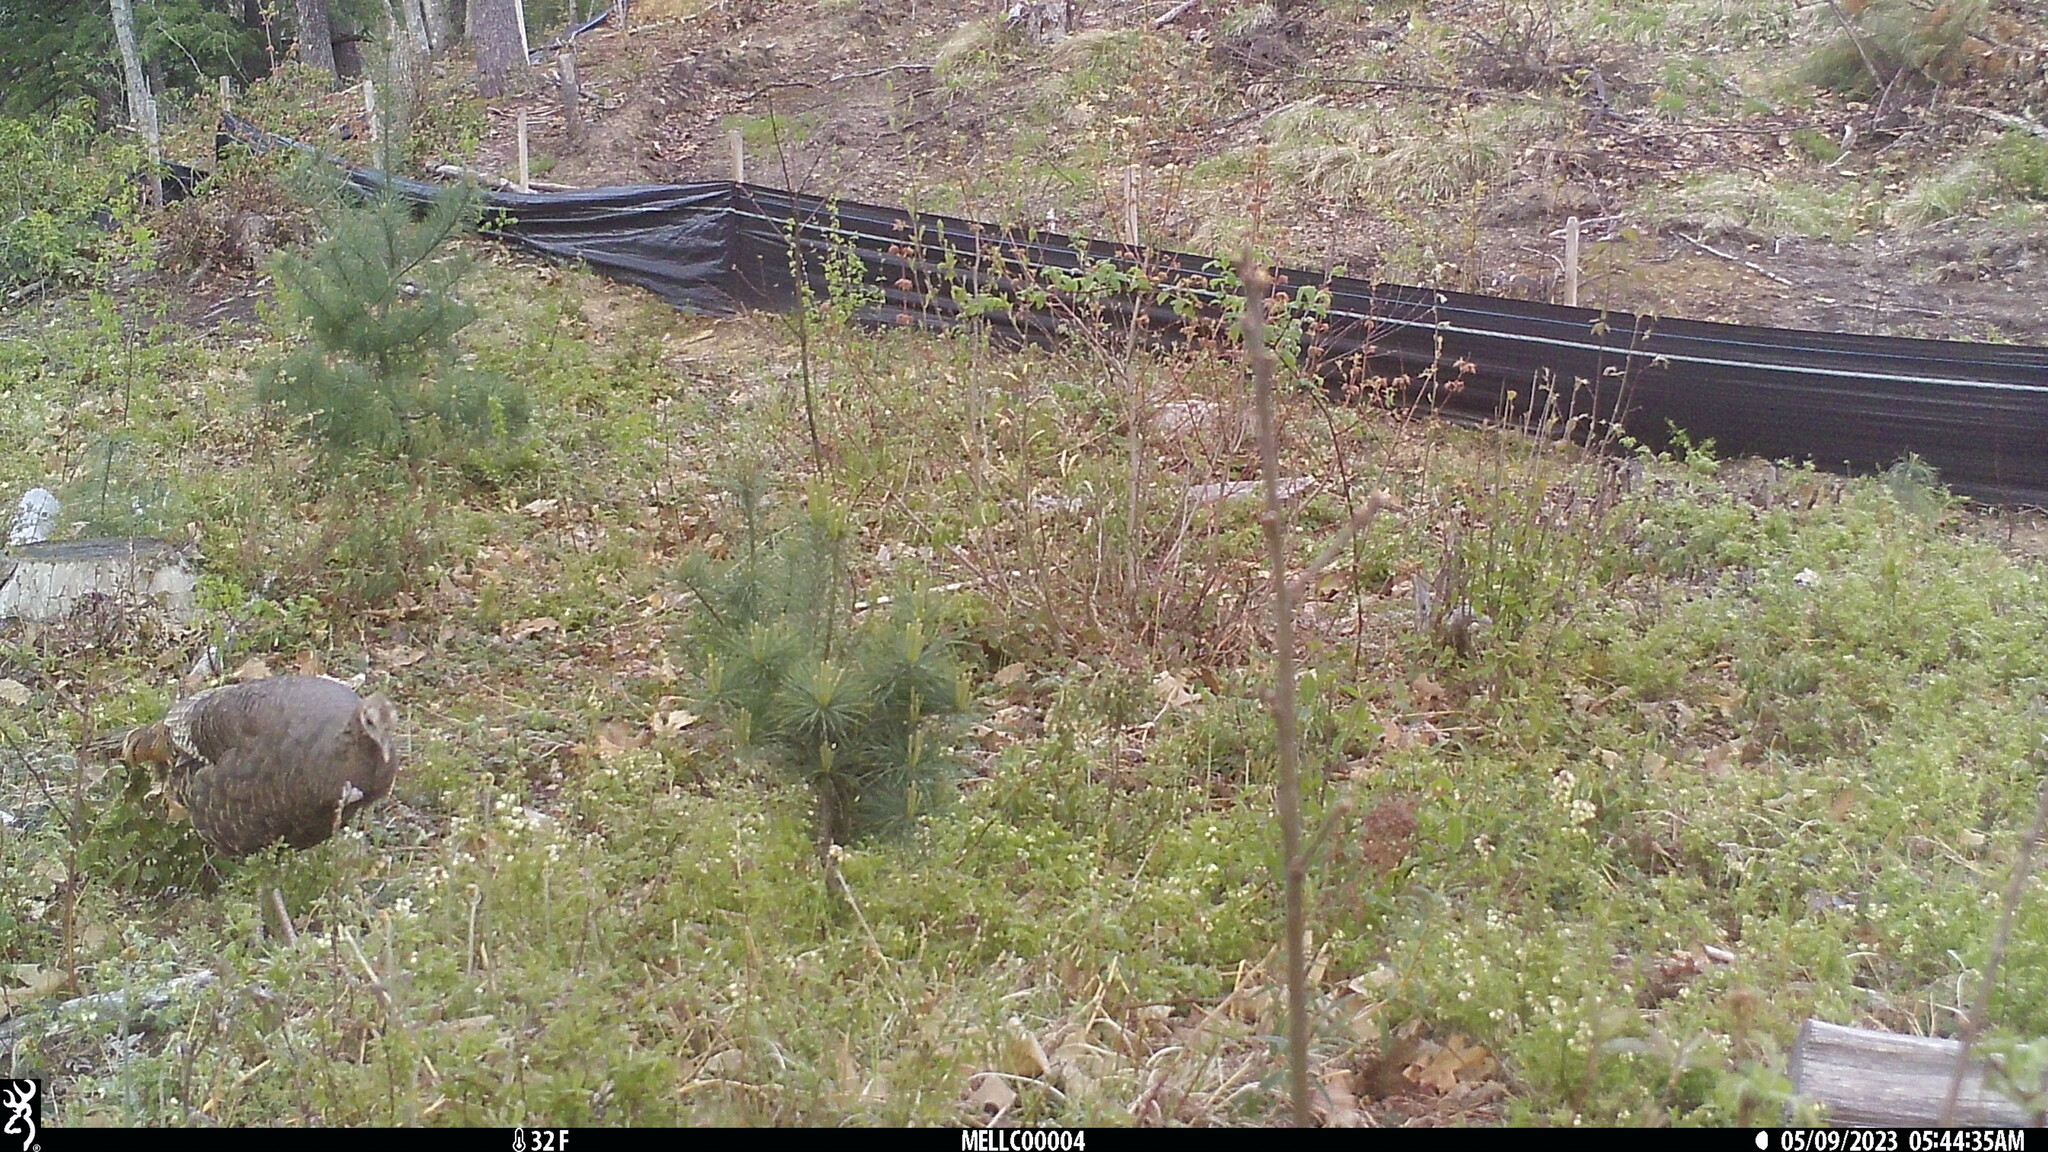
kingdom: Animalia
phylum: Chordata
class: Aves
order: Galliformes
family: Phasianidae
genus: Meleagris
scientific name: Meleagris gallopavo
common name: Wild turkey
